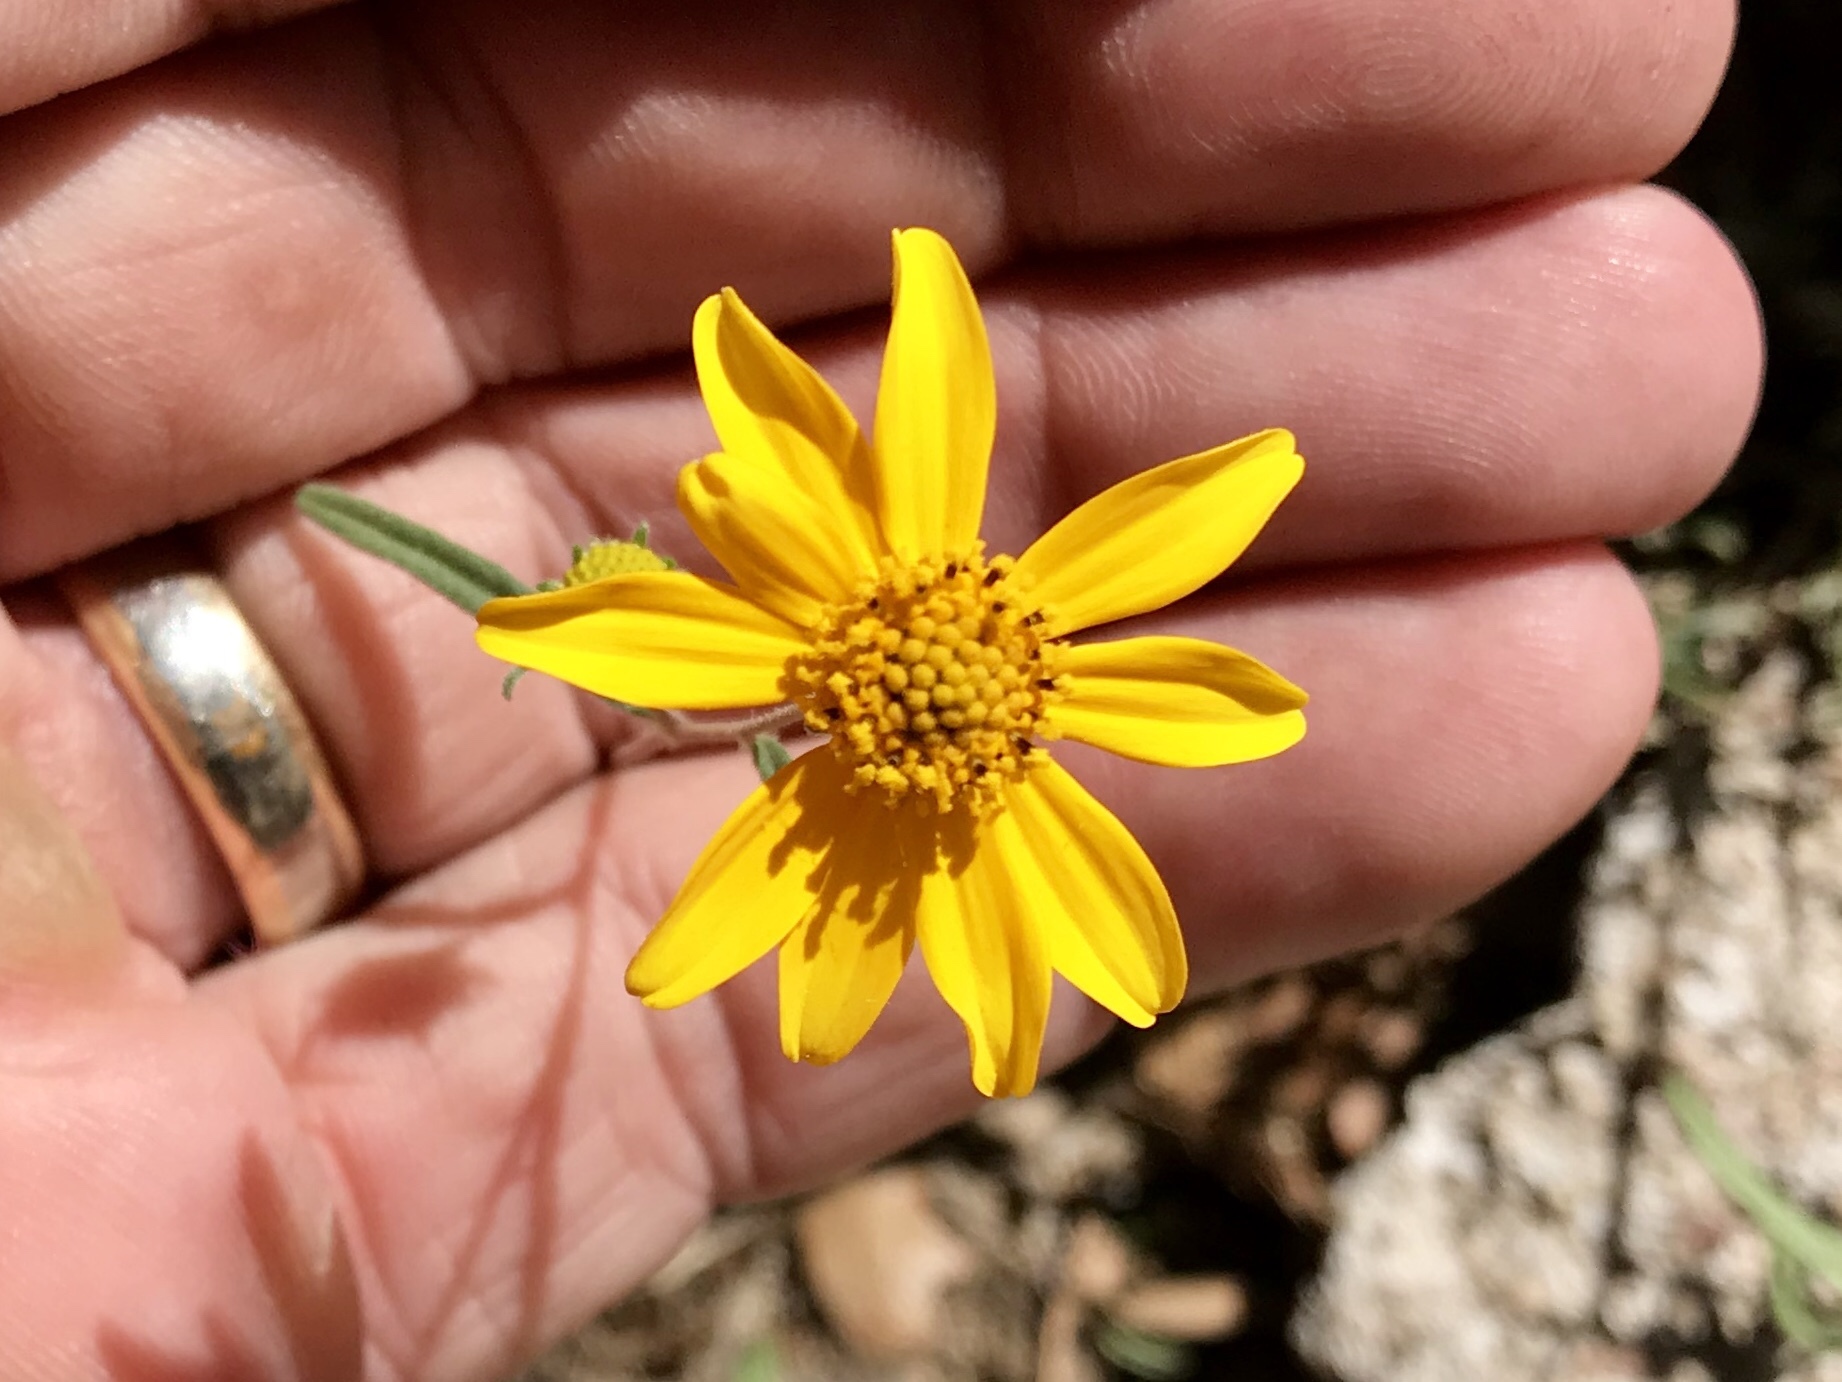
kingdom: Plantae
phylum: Tracheophyta
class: Magnoliopsida
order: Asterales
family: Asteraceae
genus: Heliomeris
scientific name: Heliomeris longifolia
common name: Longleaf false goldeneye
